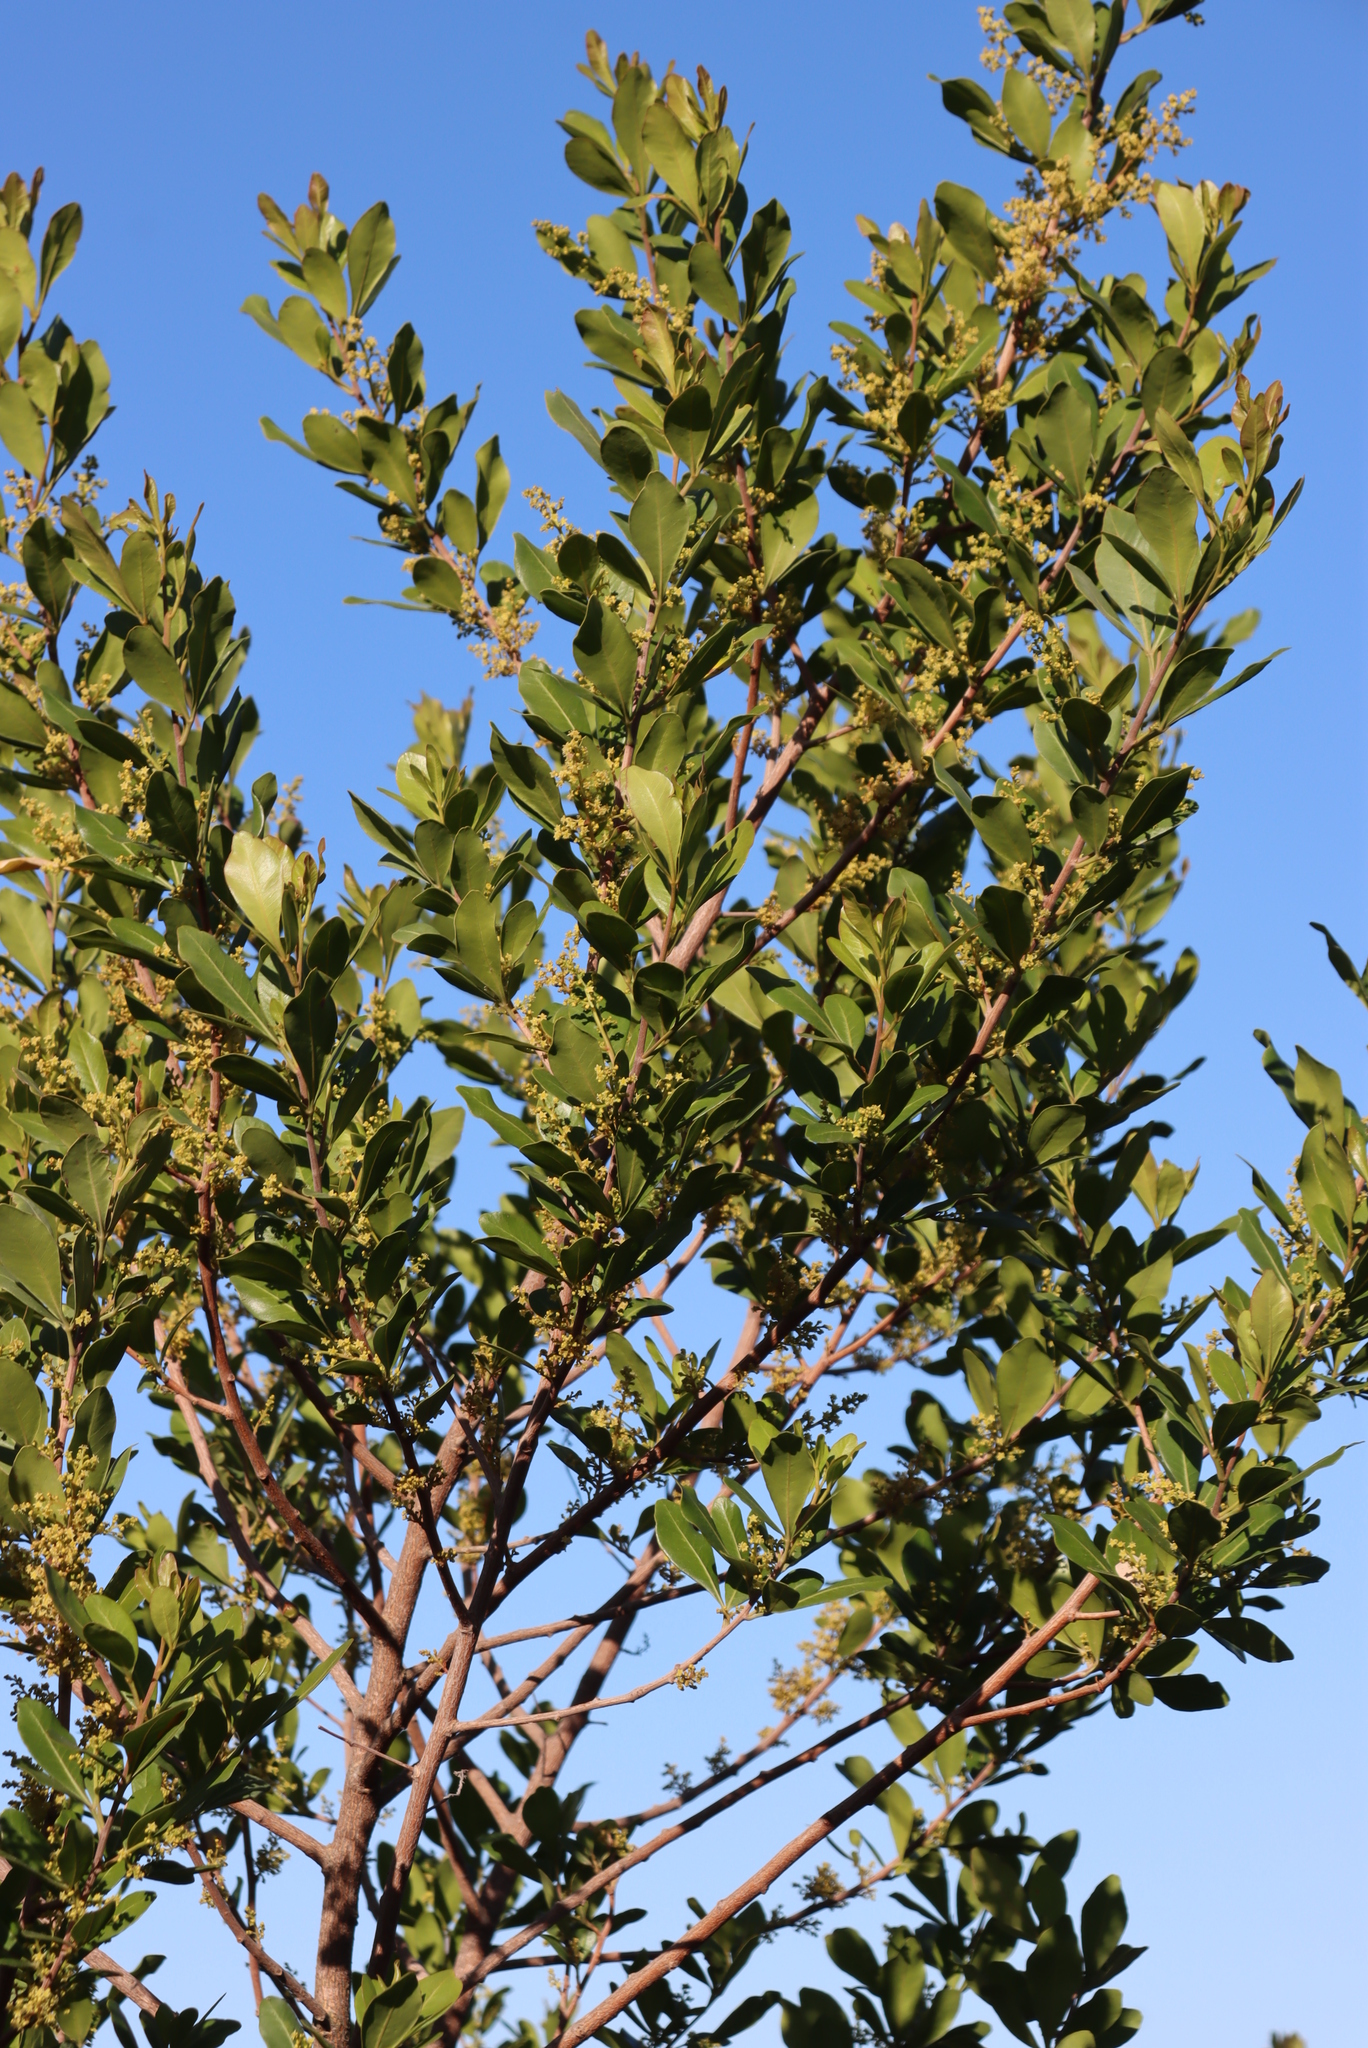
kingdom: Plantae
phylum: Tracheophyta
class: Magnoliopsida
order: Sapindales
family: Anacardiaceae
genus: Searsia
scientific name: Searsia lucida
